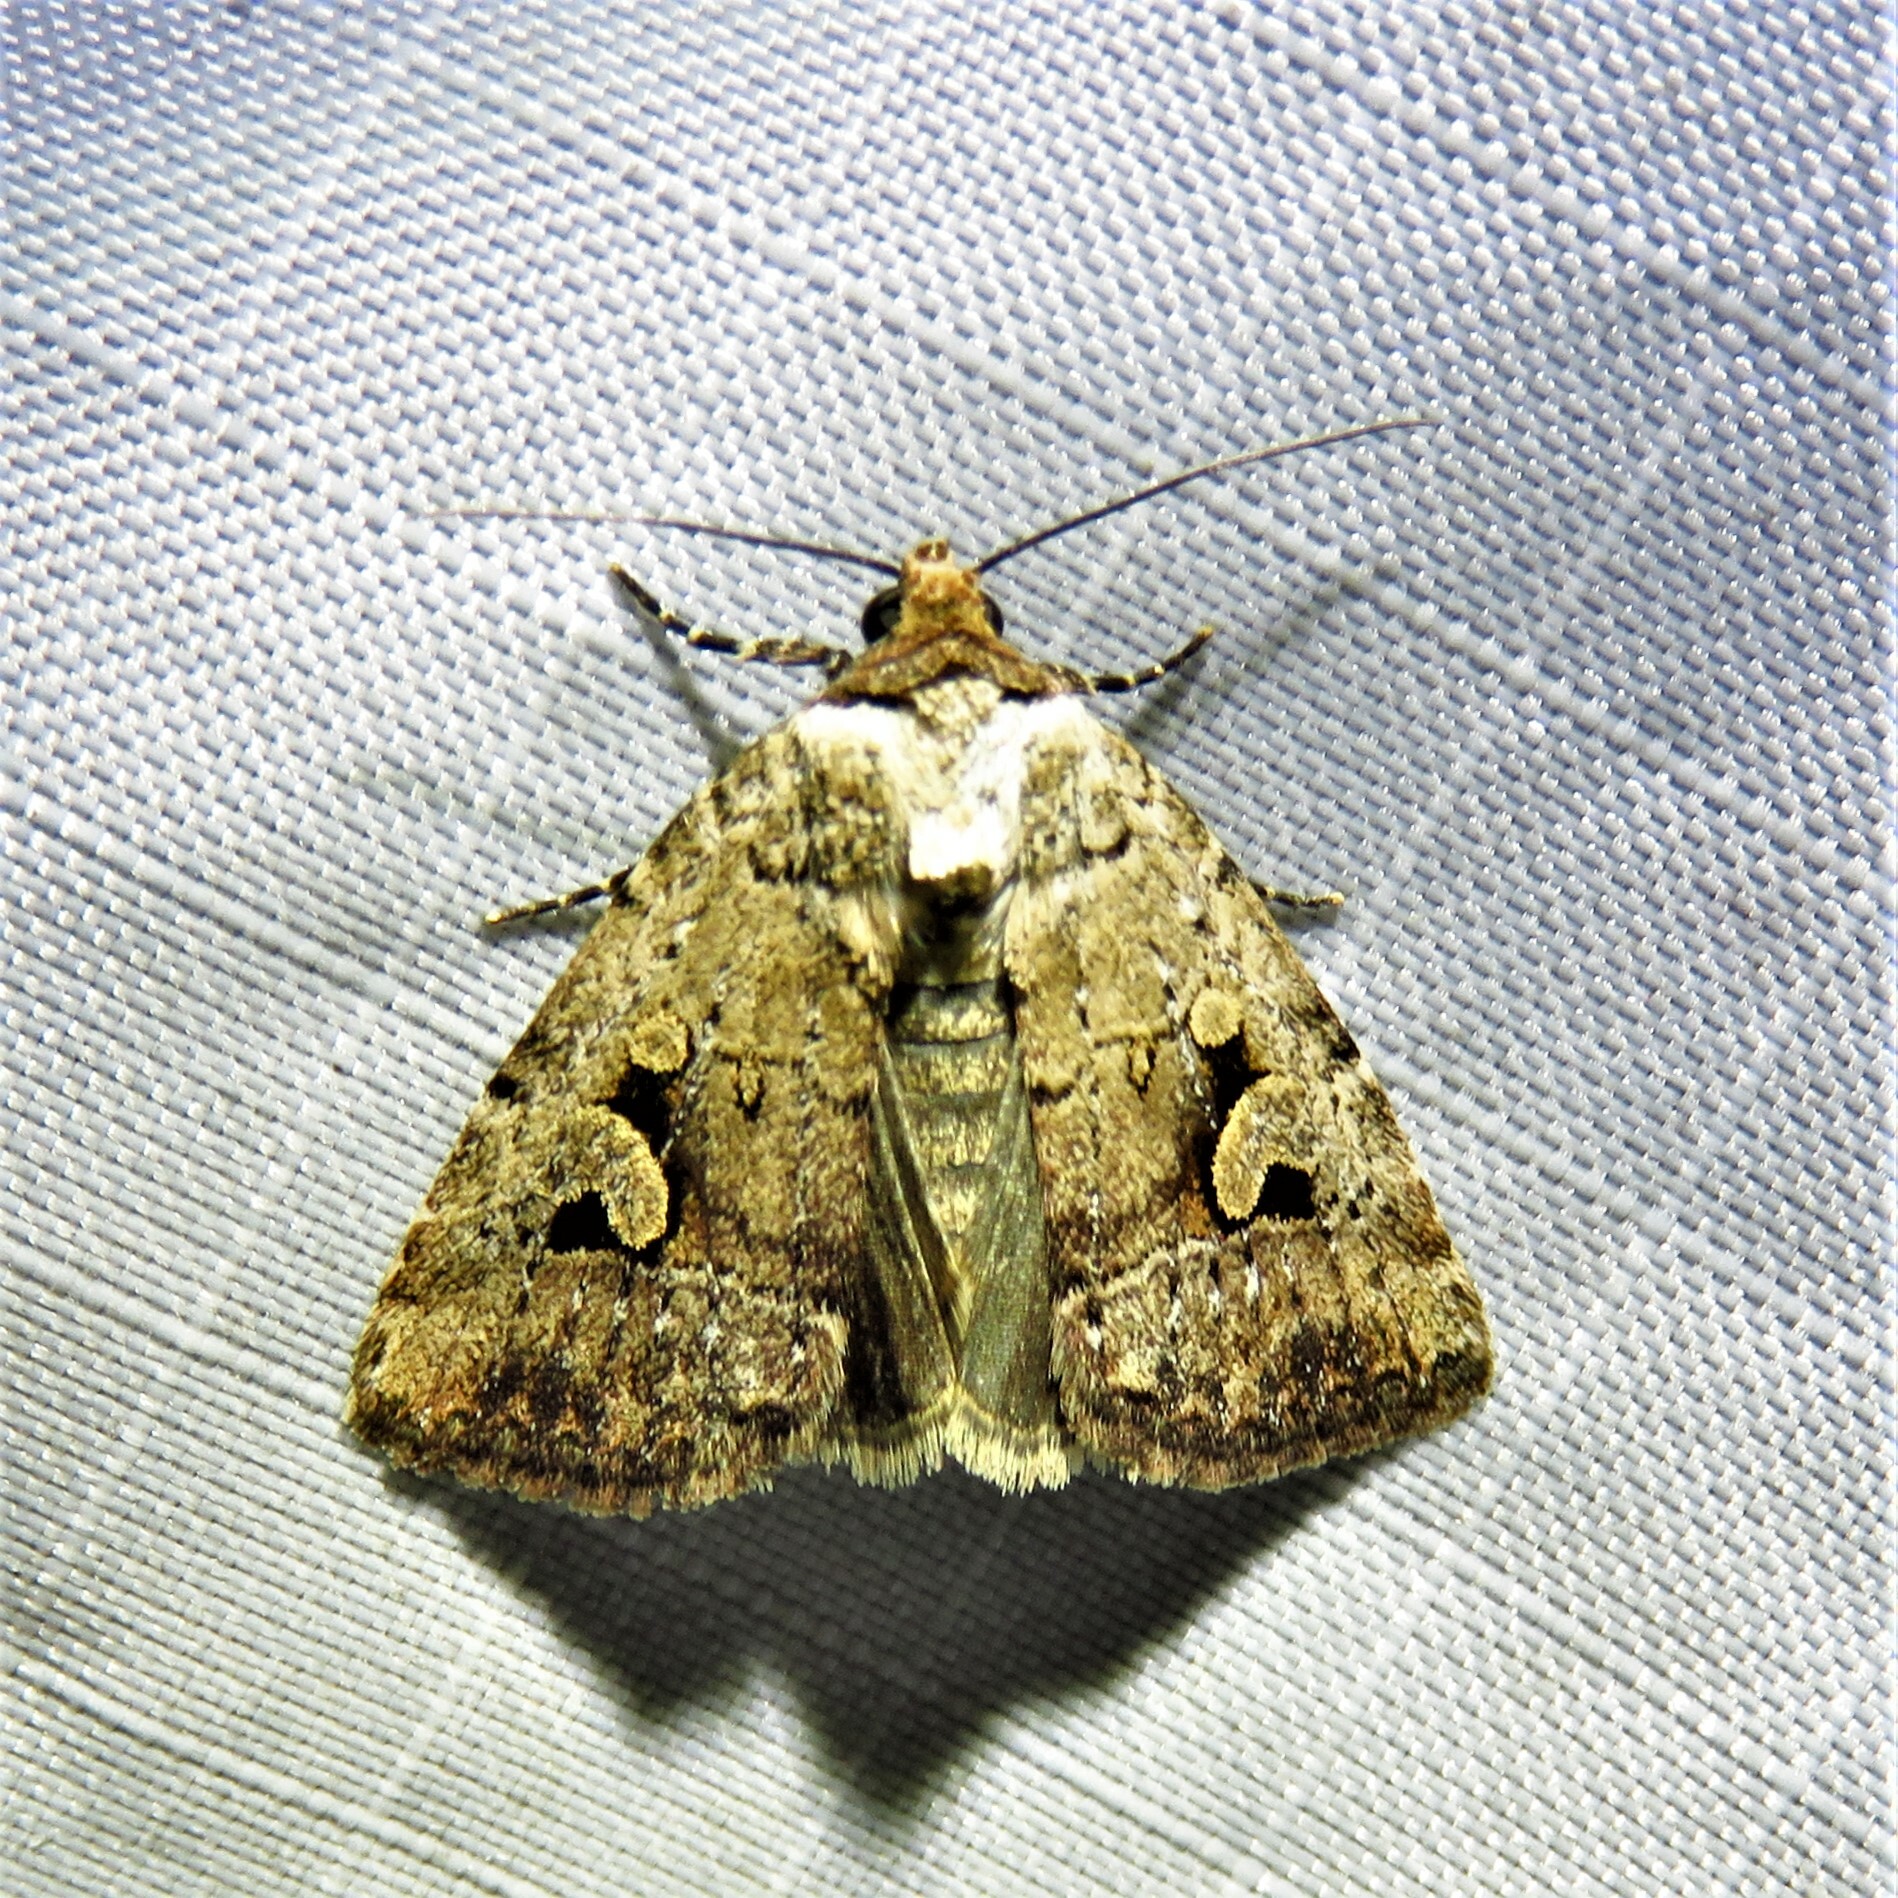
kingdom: Animalia
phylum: Arthropoda
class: Insecta
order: Lepidoptera
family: Noctuidae
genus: Elaphria
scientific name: Elaphria festivoides
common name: Festive midget
